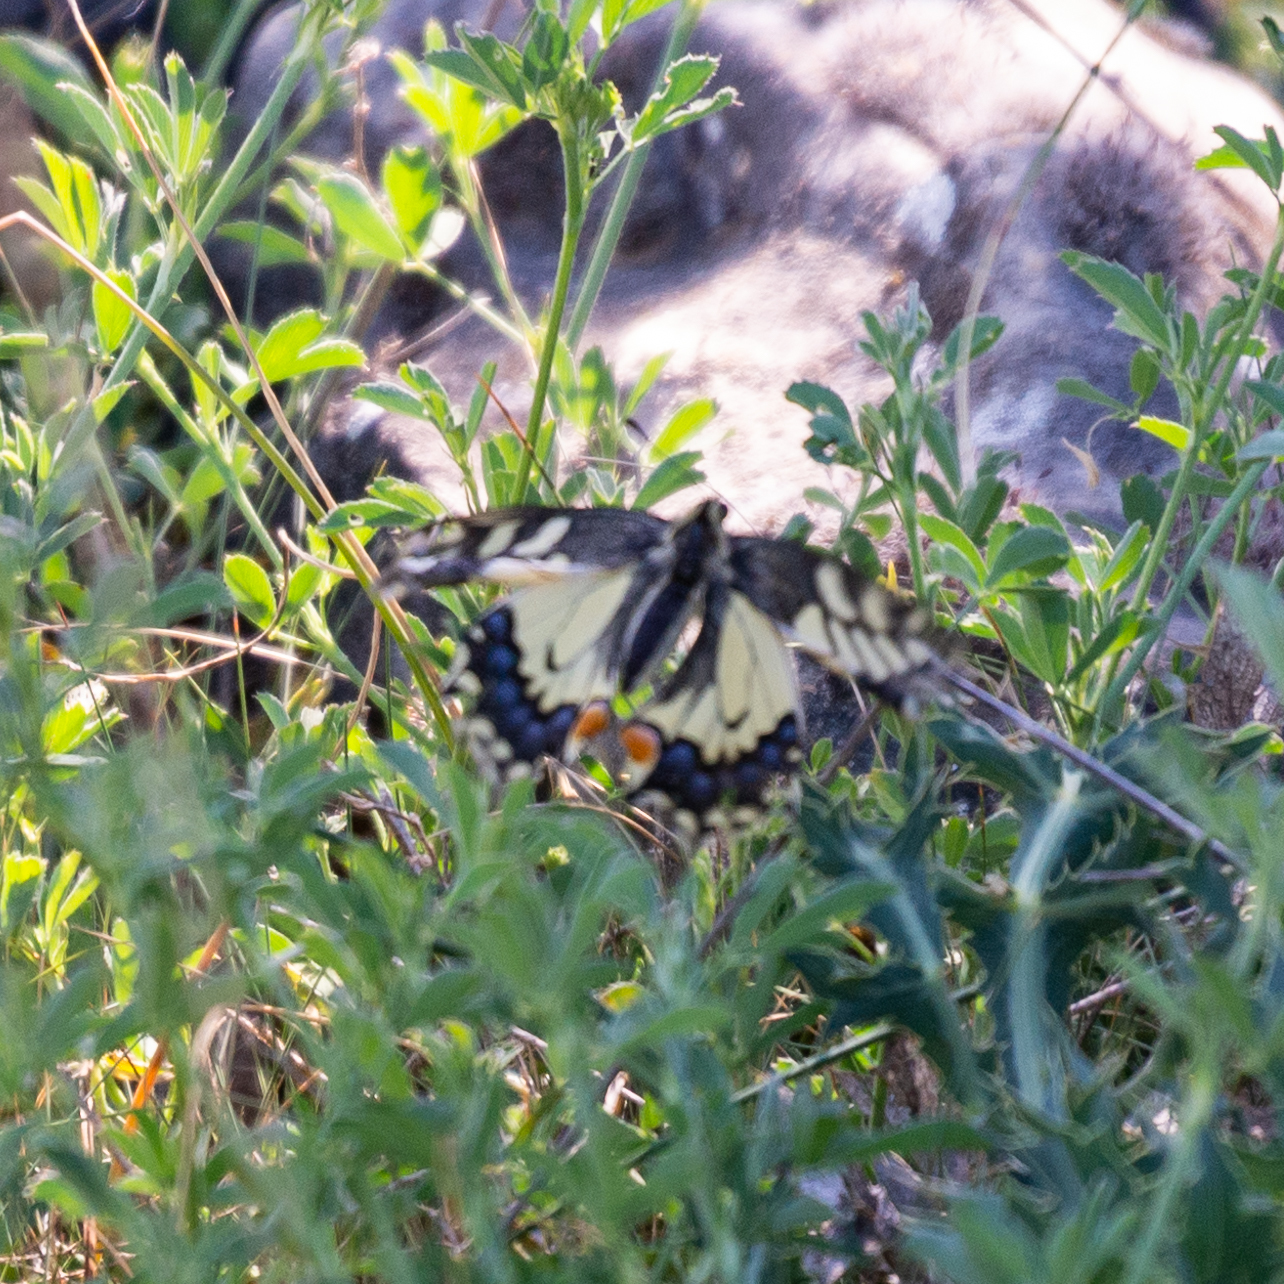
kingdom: Animalia
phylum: Arthropoda
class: Insecta
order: Lepidoptera
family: Papilionidae
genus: Papilio
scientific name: Papilio machaon
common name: Swallowtail
